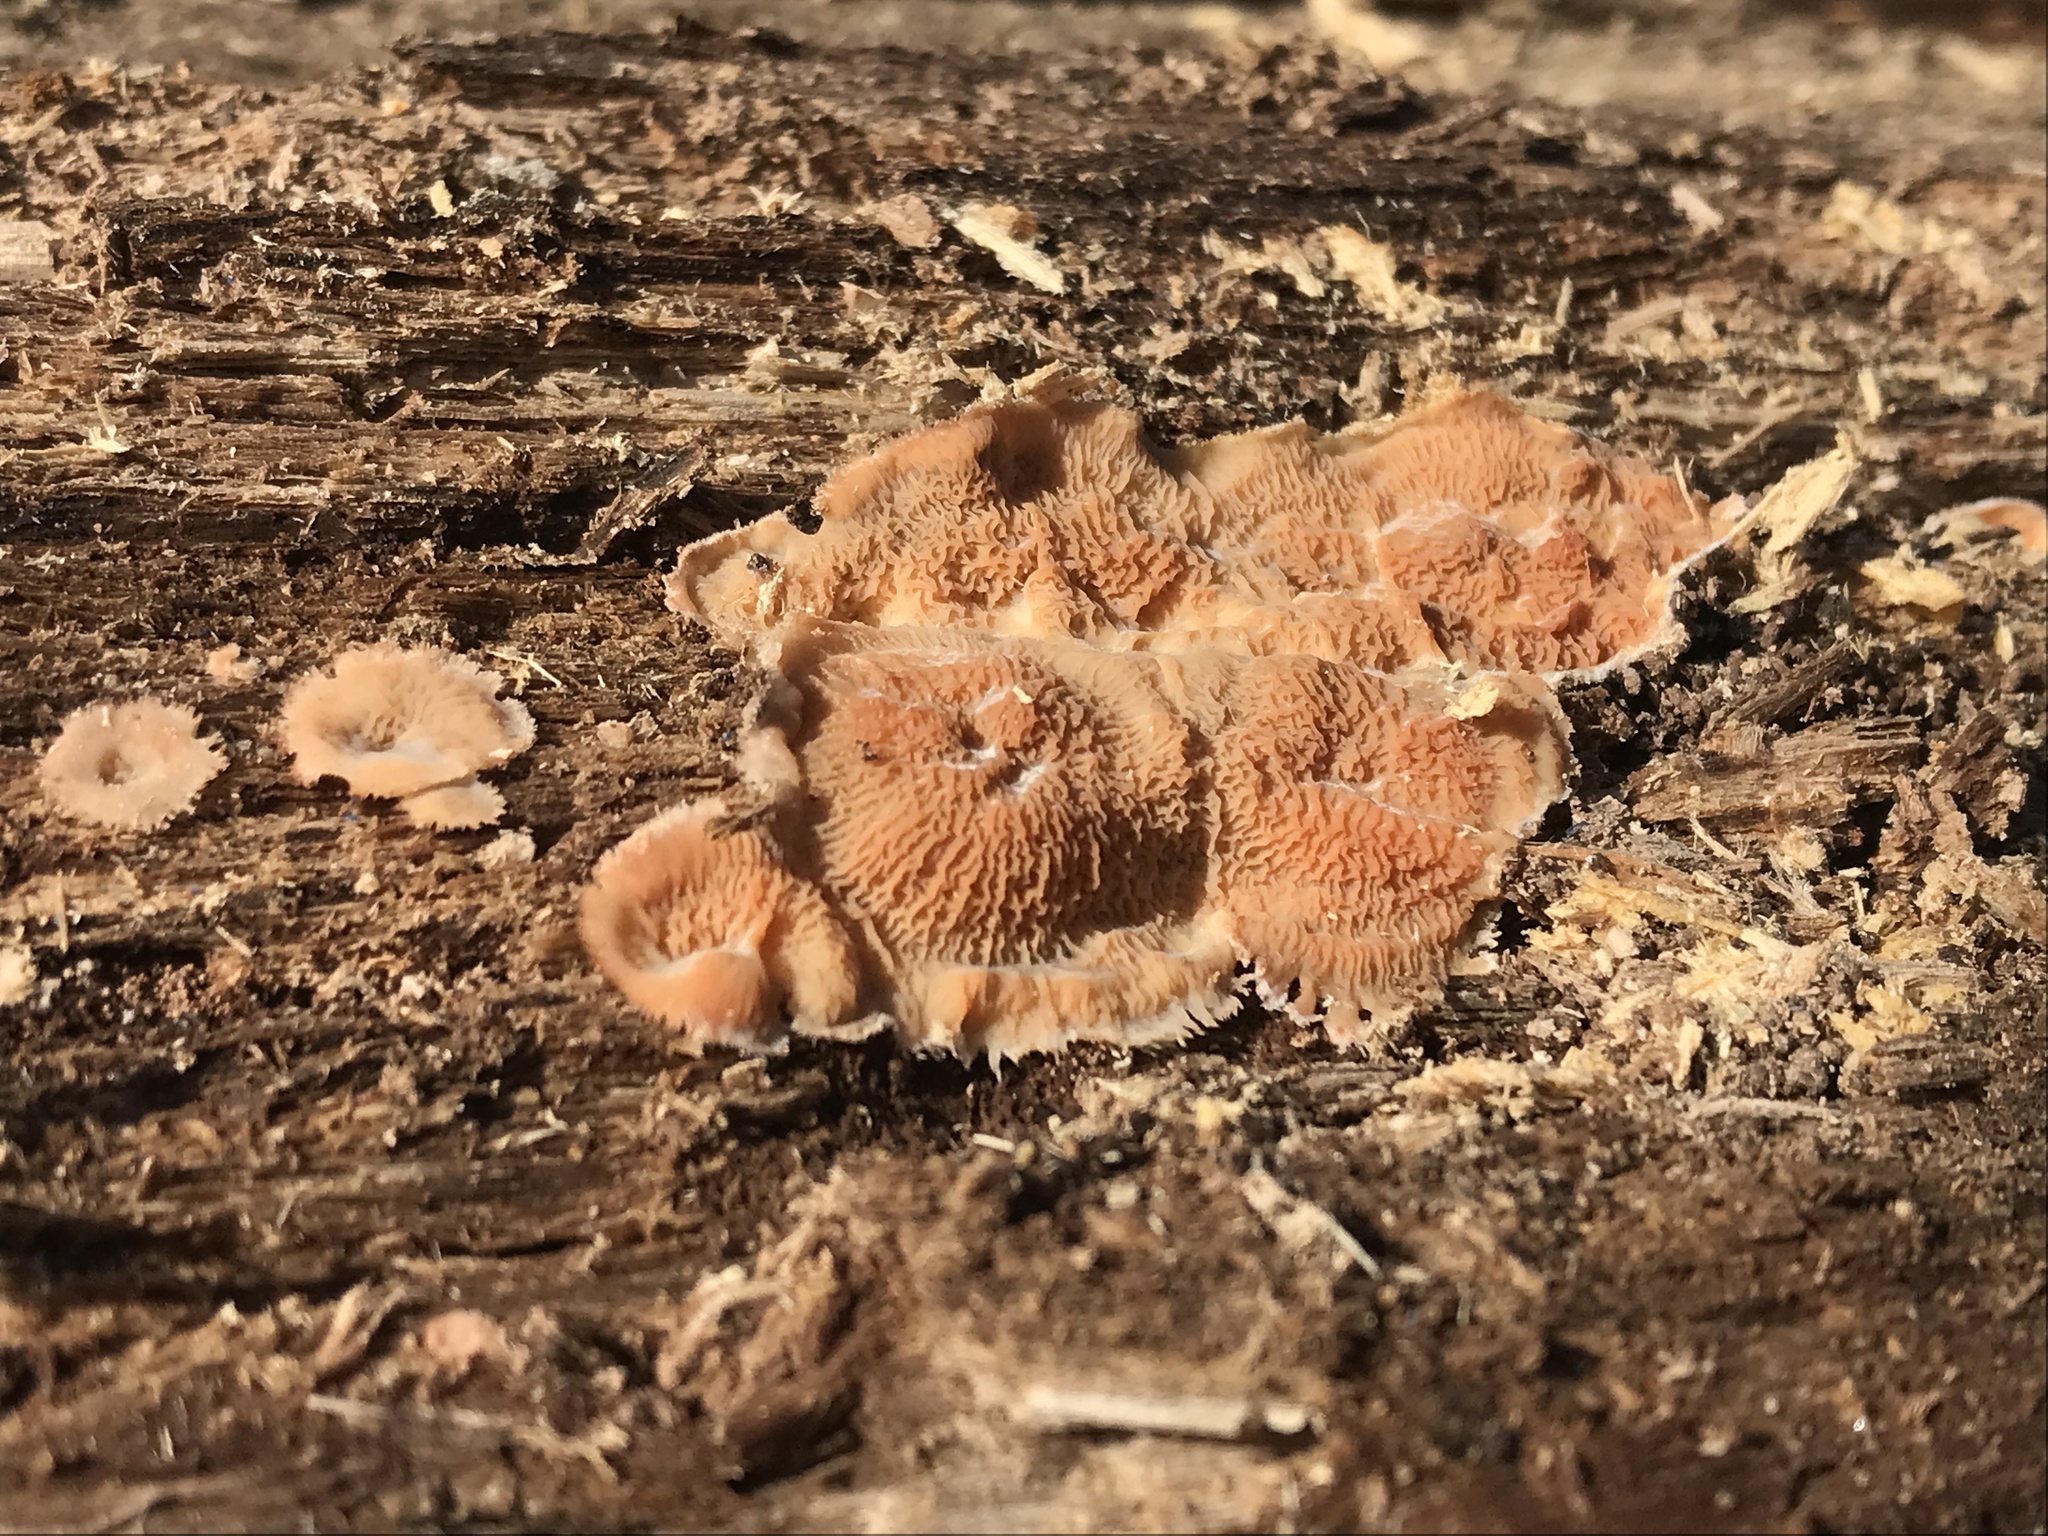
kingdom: Fungi
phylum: Basidiomycota
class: Agaricomycetes
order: Polyporales
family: Meruliaceae
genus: Phlebia
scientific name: Phlebia tremellosa
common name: Jelly rot
